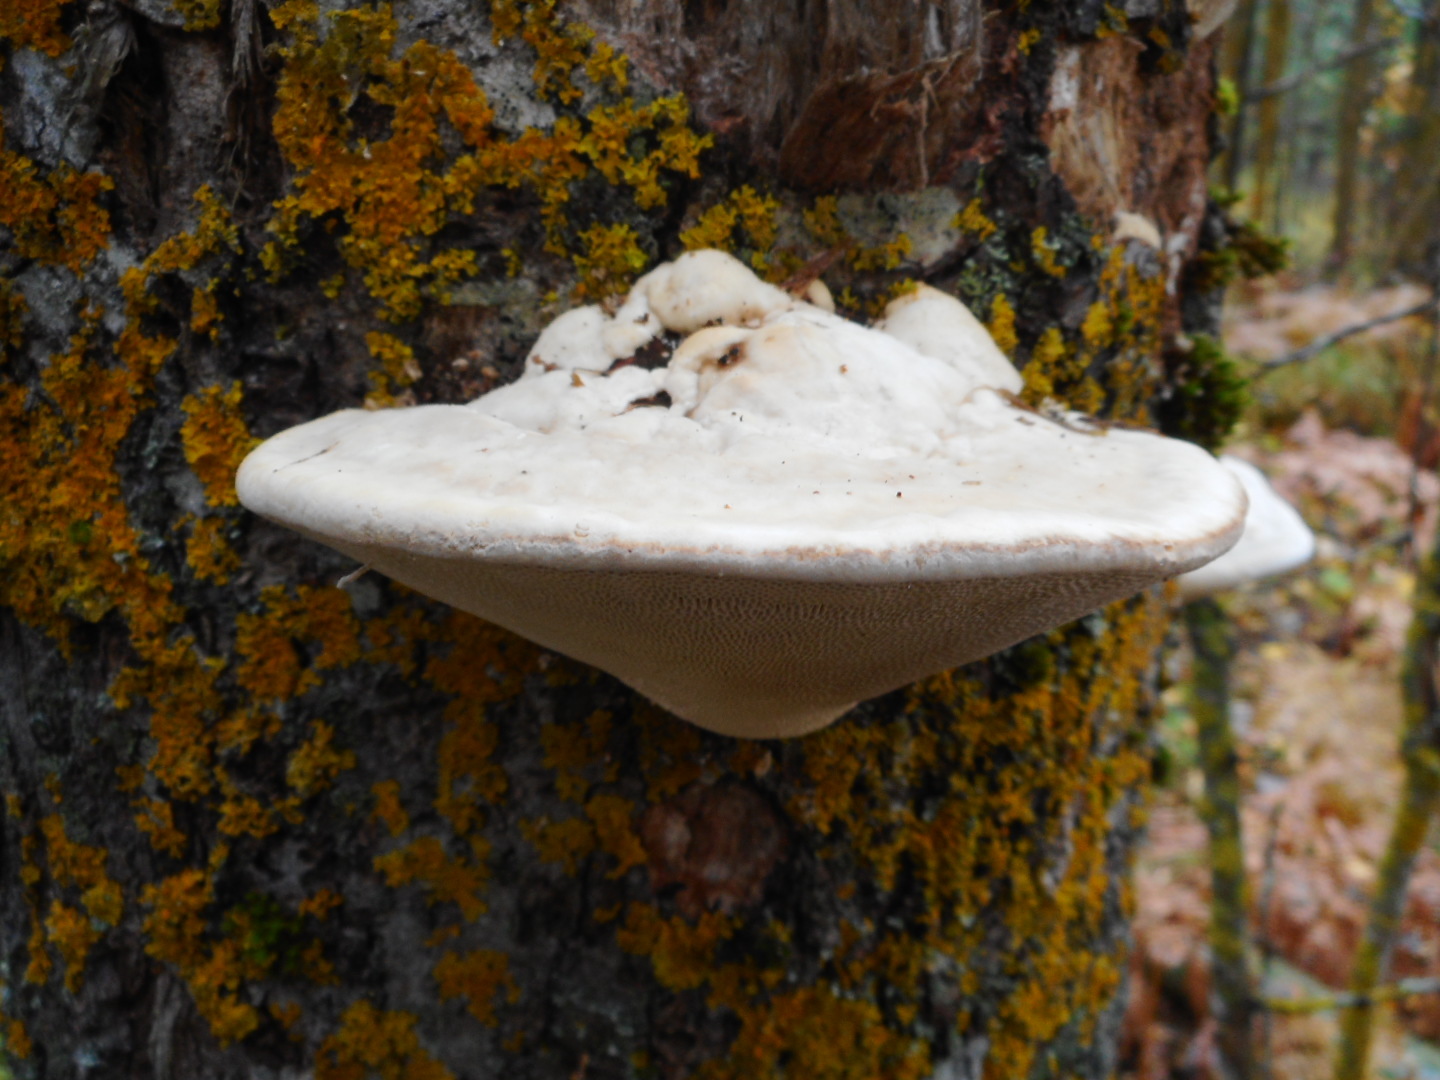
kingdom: Fungi
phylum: Basidiomycota
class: Agaricomycetes
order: Polyporales
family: Polyporaceae
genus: Trametes
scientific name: Trametes gibbosa
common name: Lumpy bracket
